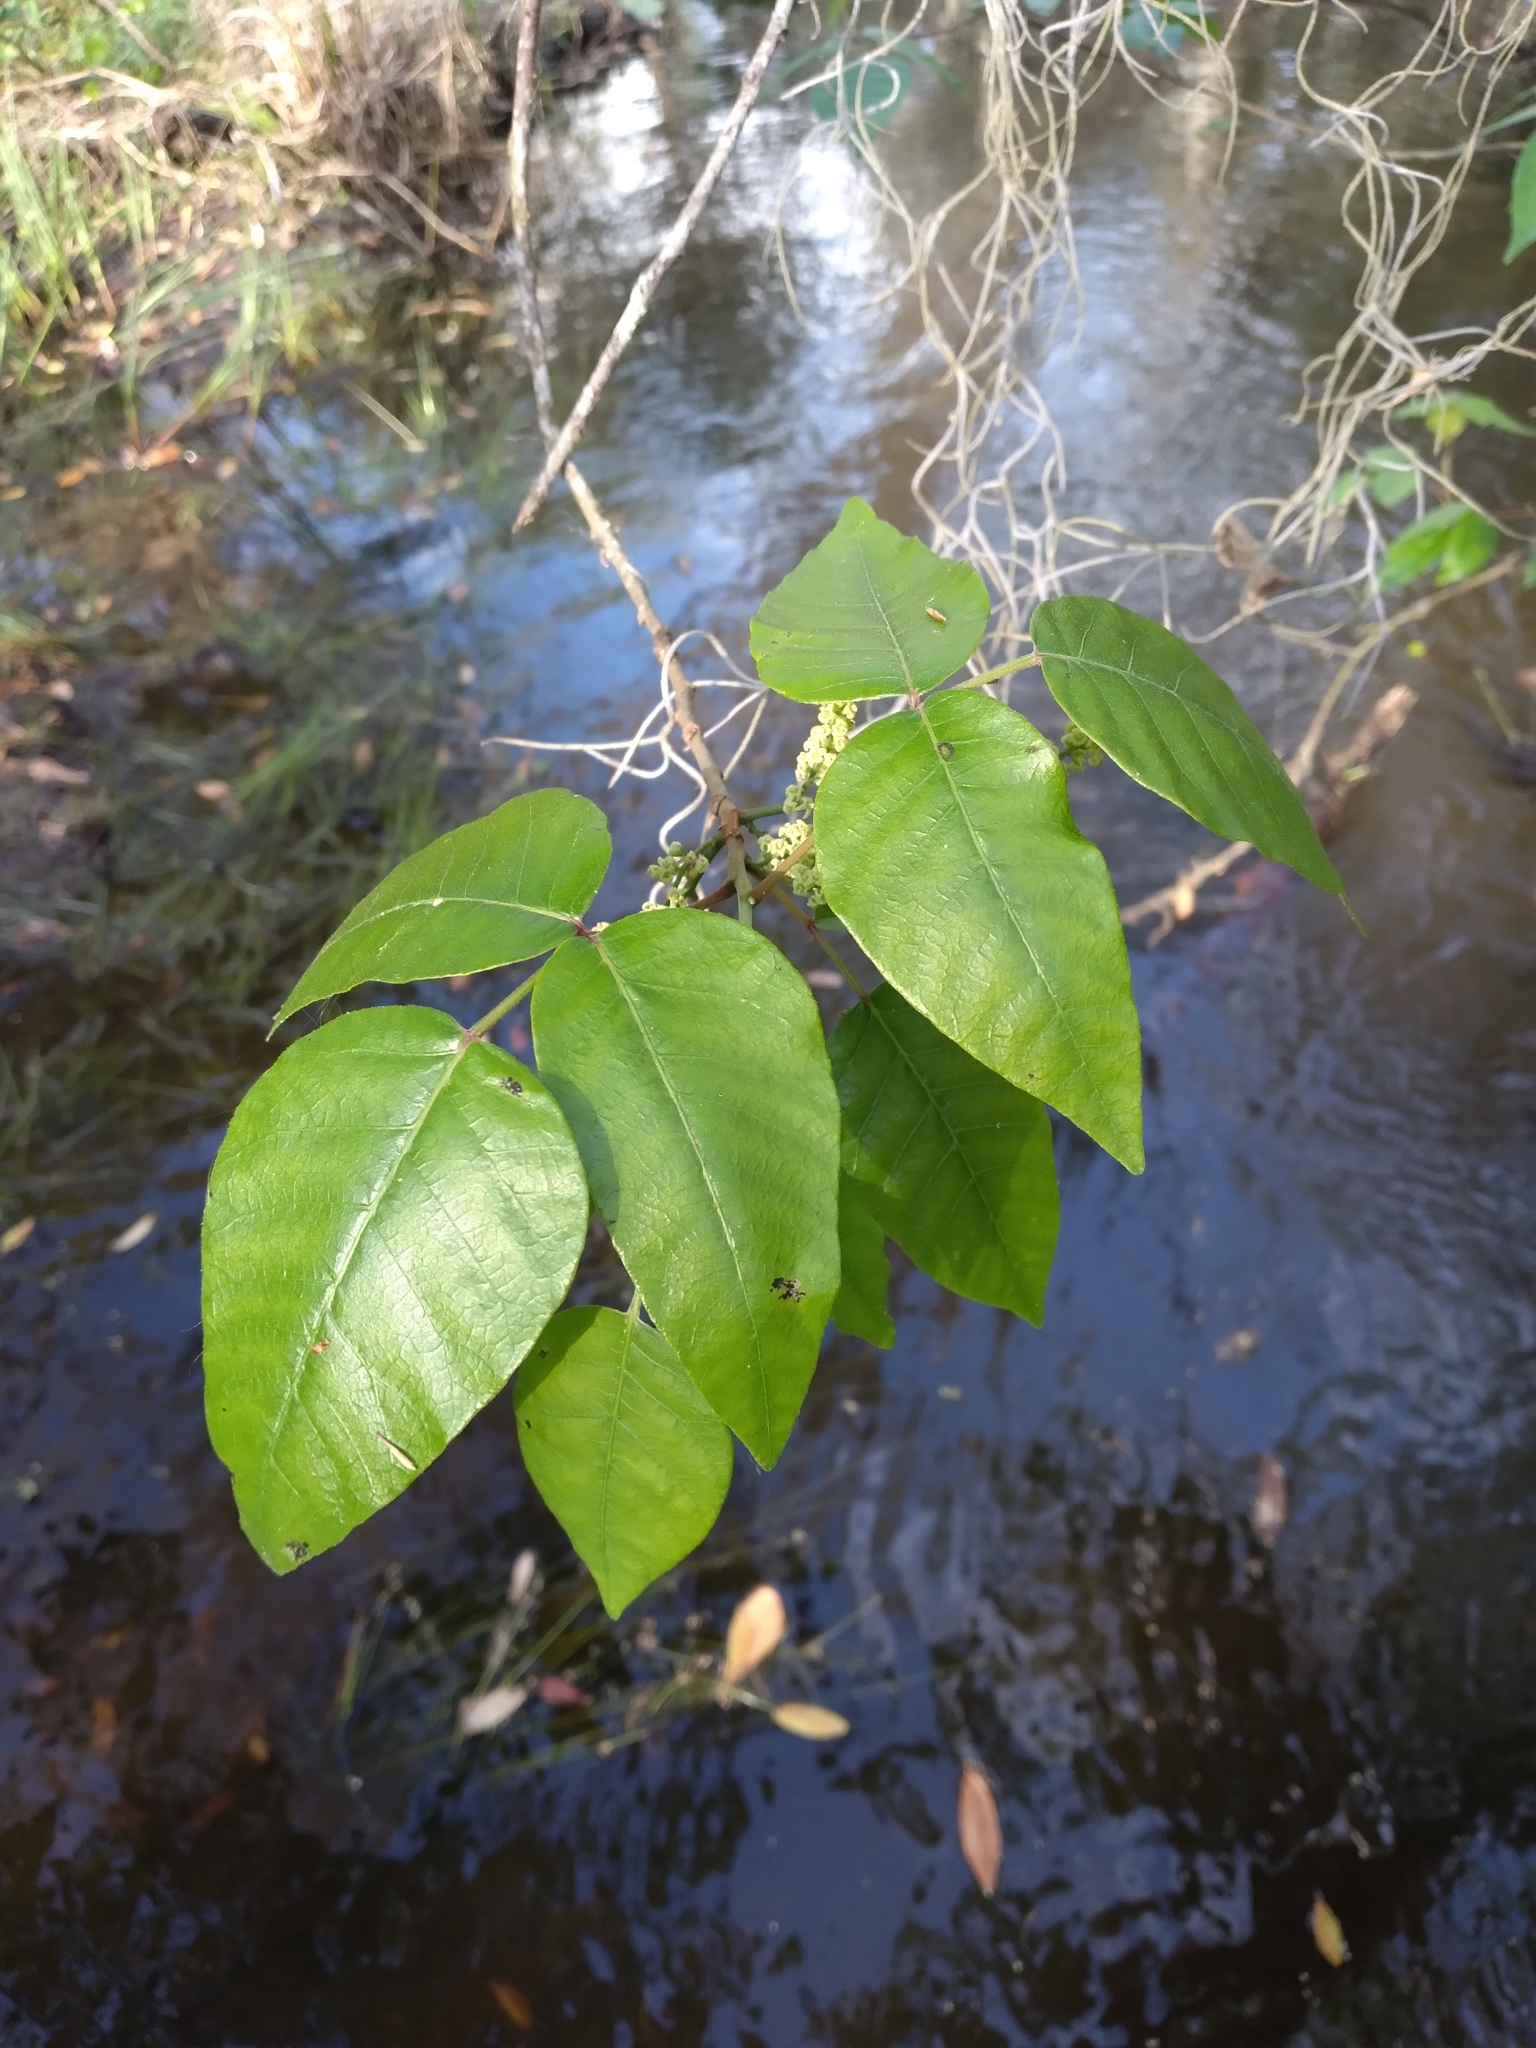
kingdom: Plantae
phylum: Tracheophyta
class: Magnoliopsida
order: Sapindales
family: Anacardiaceae
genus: Toxicodendron
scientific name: Toxicodendron radicans
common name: Poison ivy
